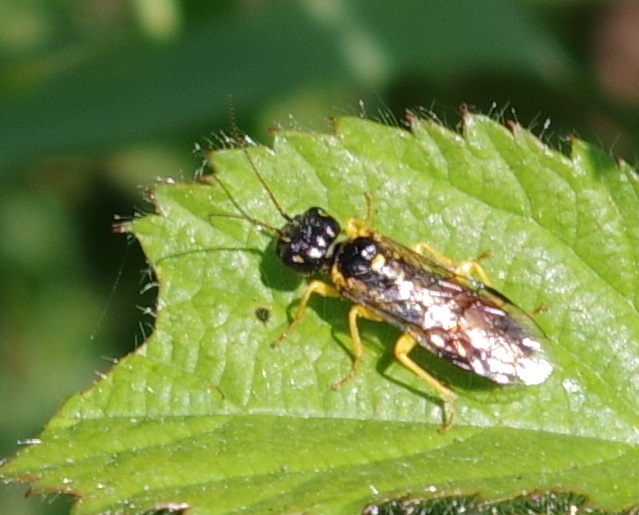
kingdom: Animalia
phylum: Arthropoda
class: Insecta
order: Hymenoptera
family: Pamphiliidae
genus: Pamphilius
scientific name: Pamphilius hortorum
